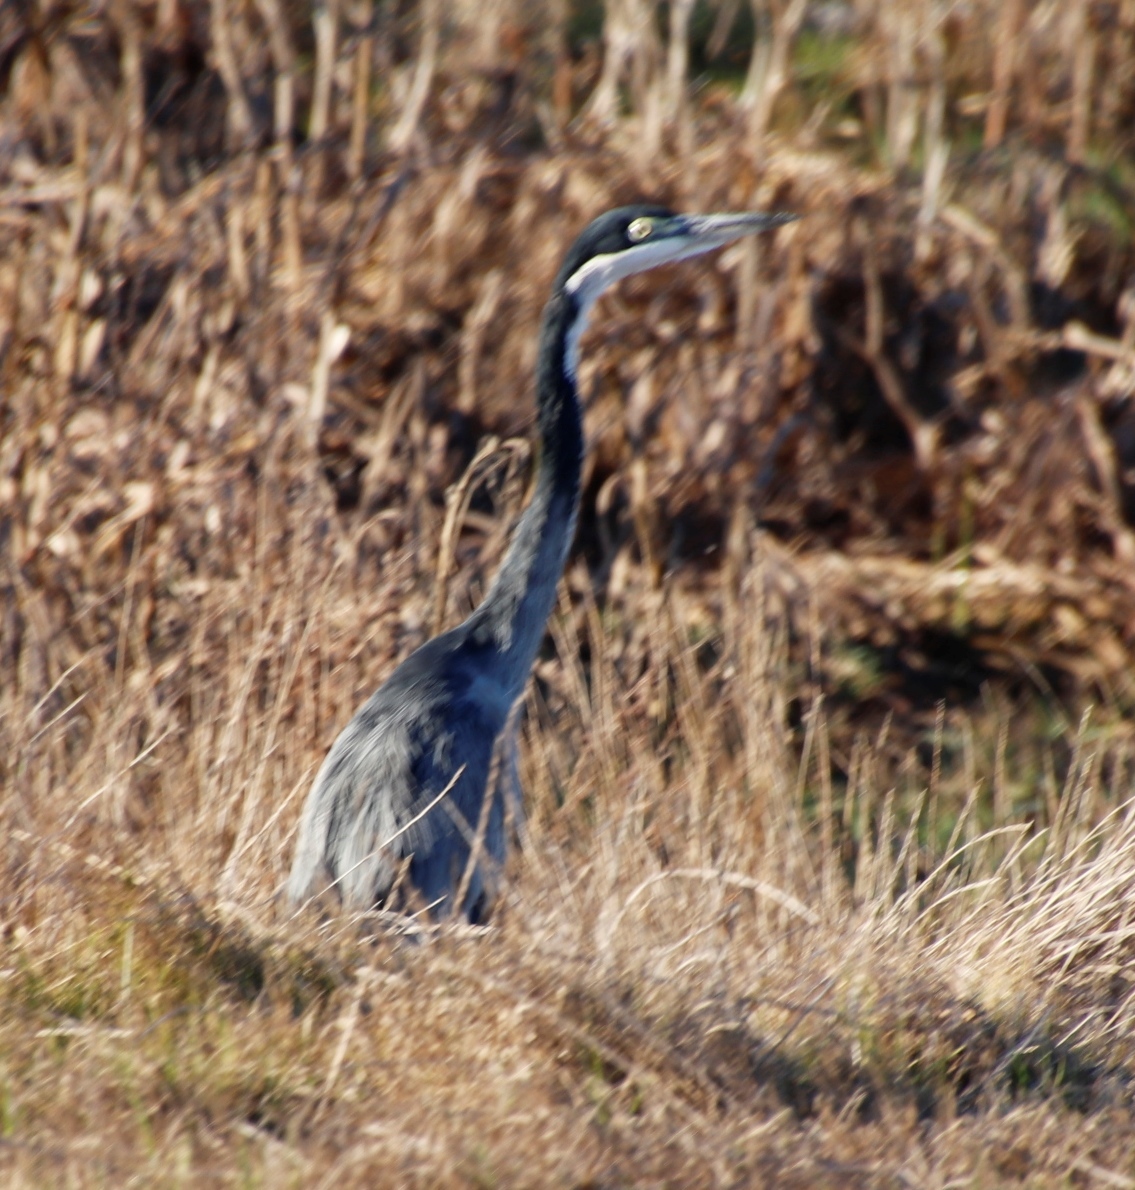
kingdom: Animalia
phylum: Chordata
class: Aves
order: Pelecaniformes
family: Ardeidae
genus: Ardea
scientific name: Ardea melanocephala
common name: Black-headed heron
